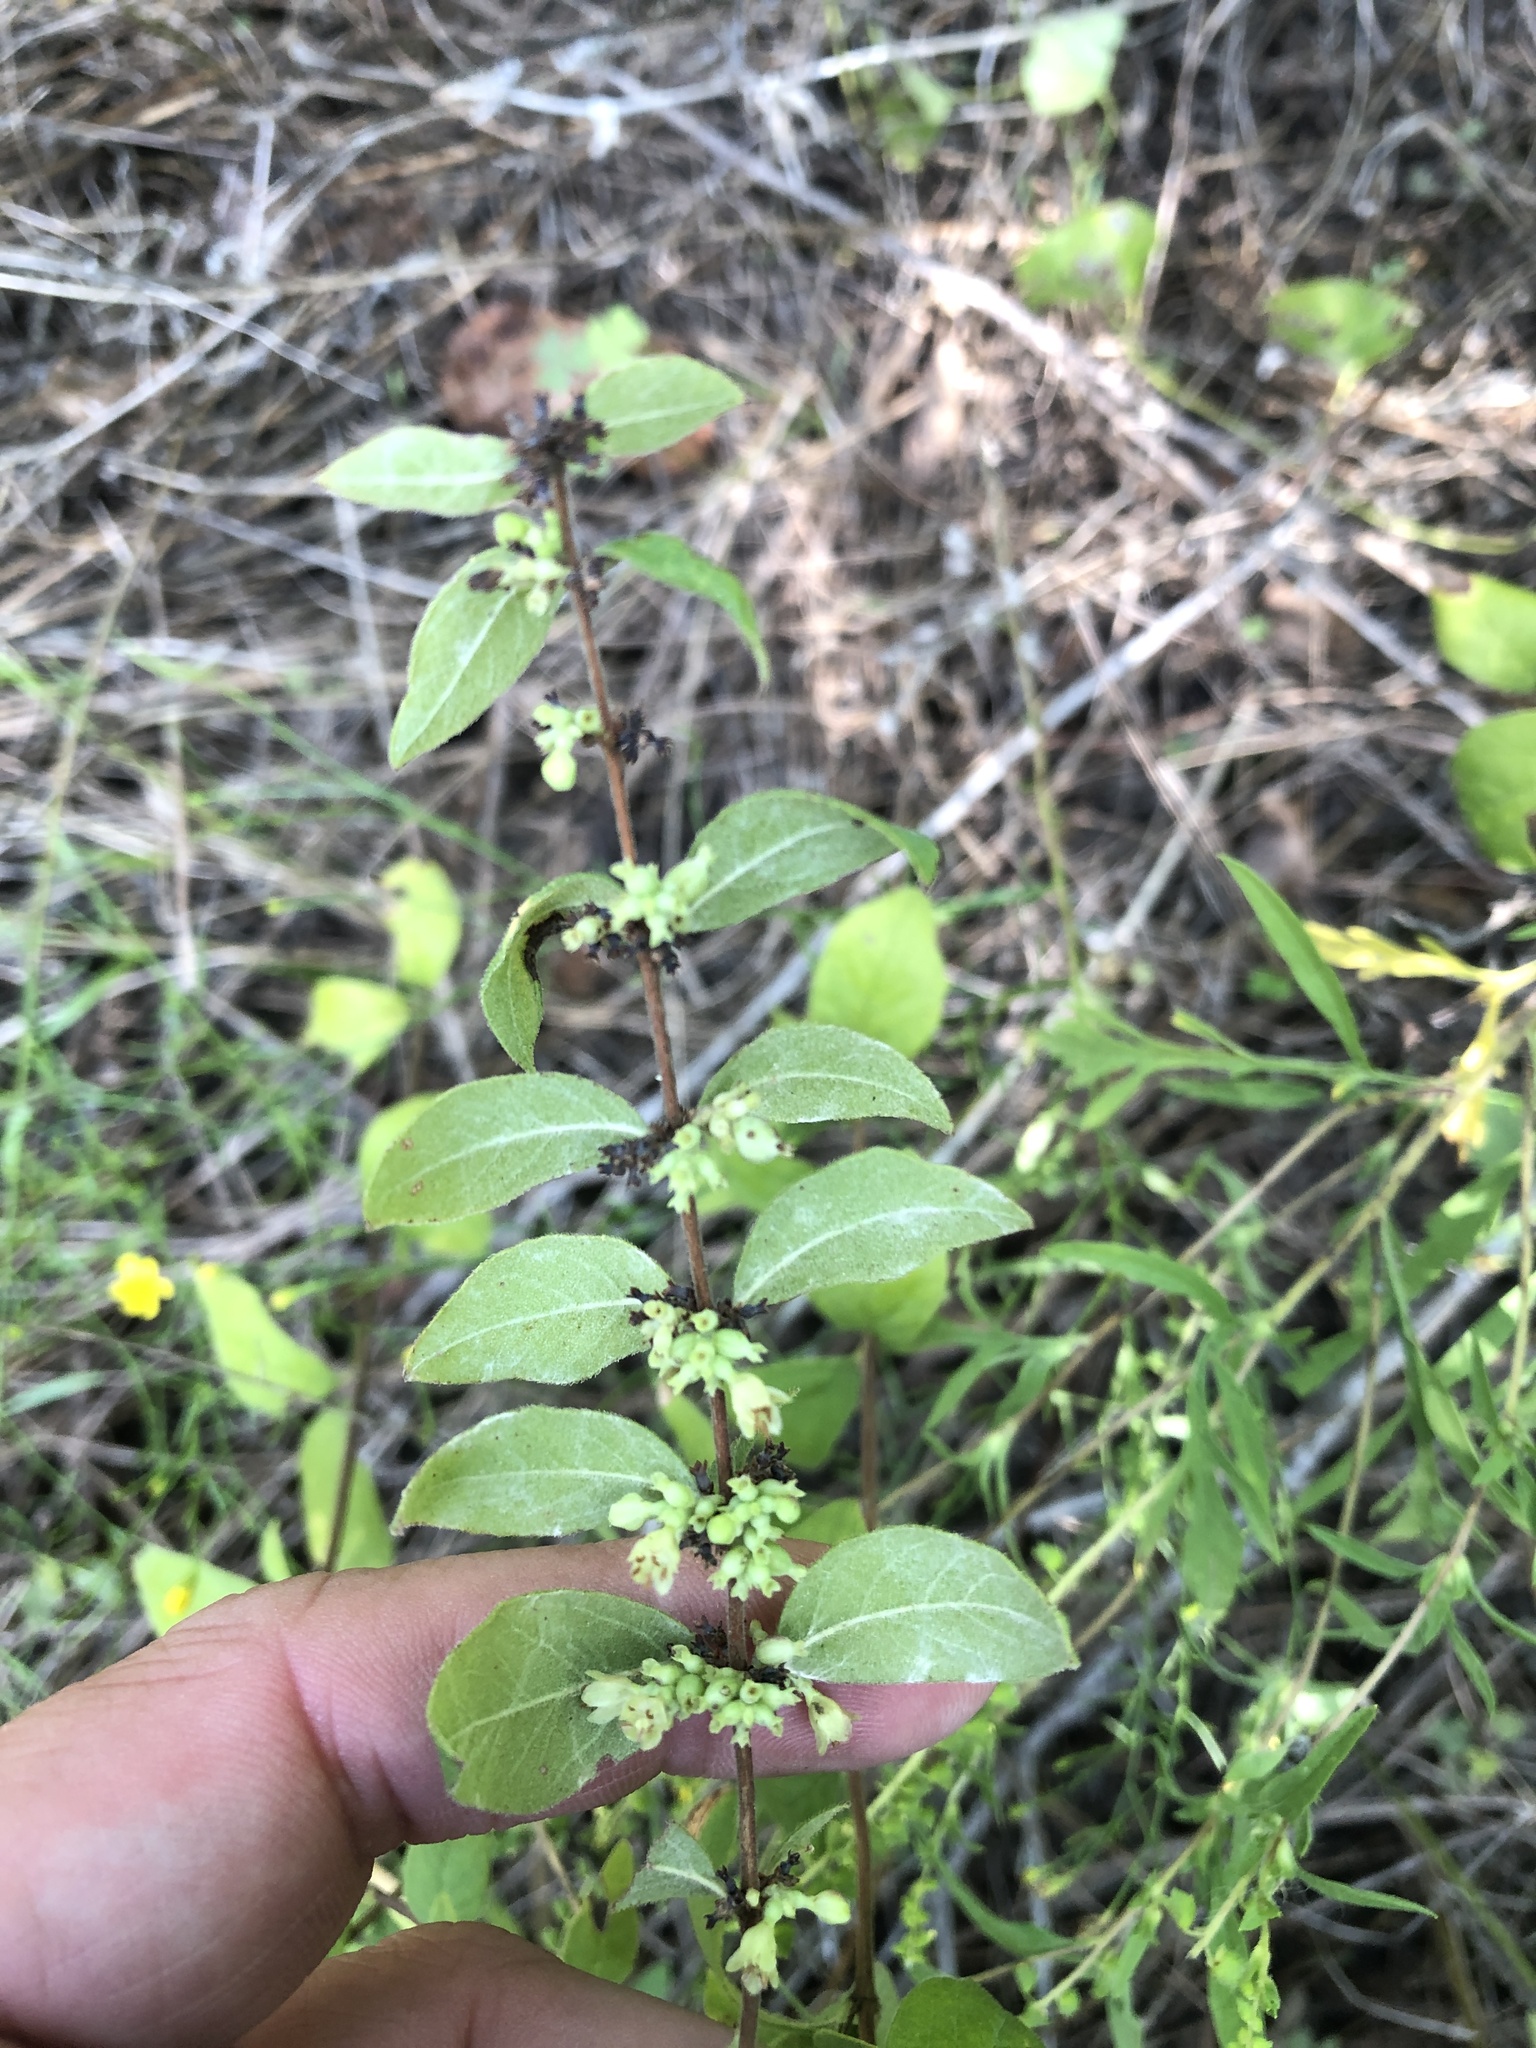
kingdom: Plantae
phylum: Tracheophyta
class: Magnoliopsida
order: Dipsacales
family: Caprifoliaceae
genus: Symphoricarpos
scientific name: Symphoricarpos orbiculatus
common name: Coralberry
